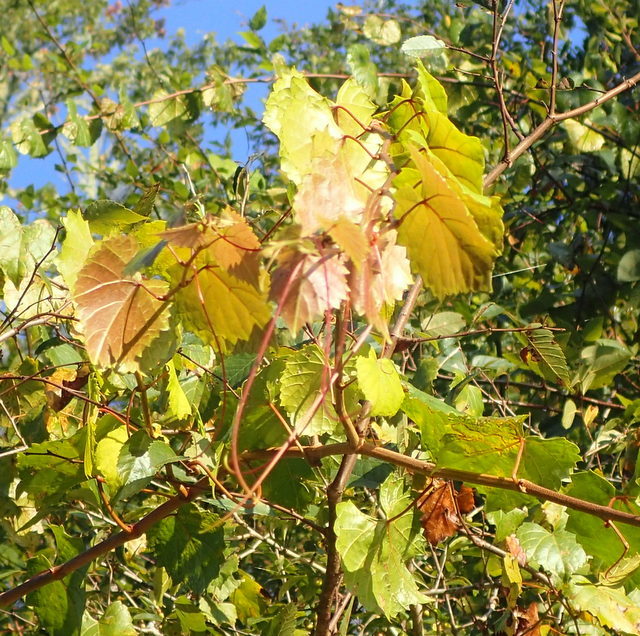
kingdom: Plantae
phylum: Tracheophyta
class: Magnoliopsida
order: Vitales
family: Vitaceae
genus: Vitis
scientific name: Vitis rotundifolia
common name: Muscadine grape
